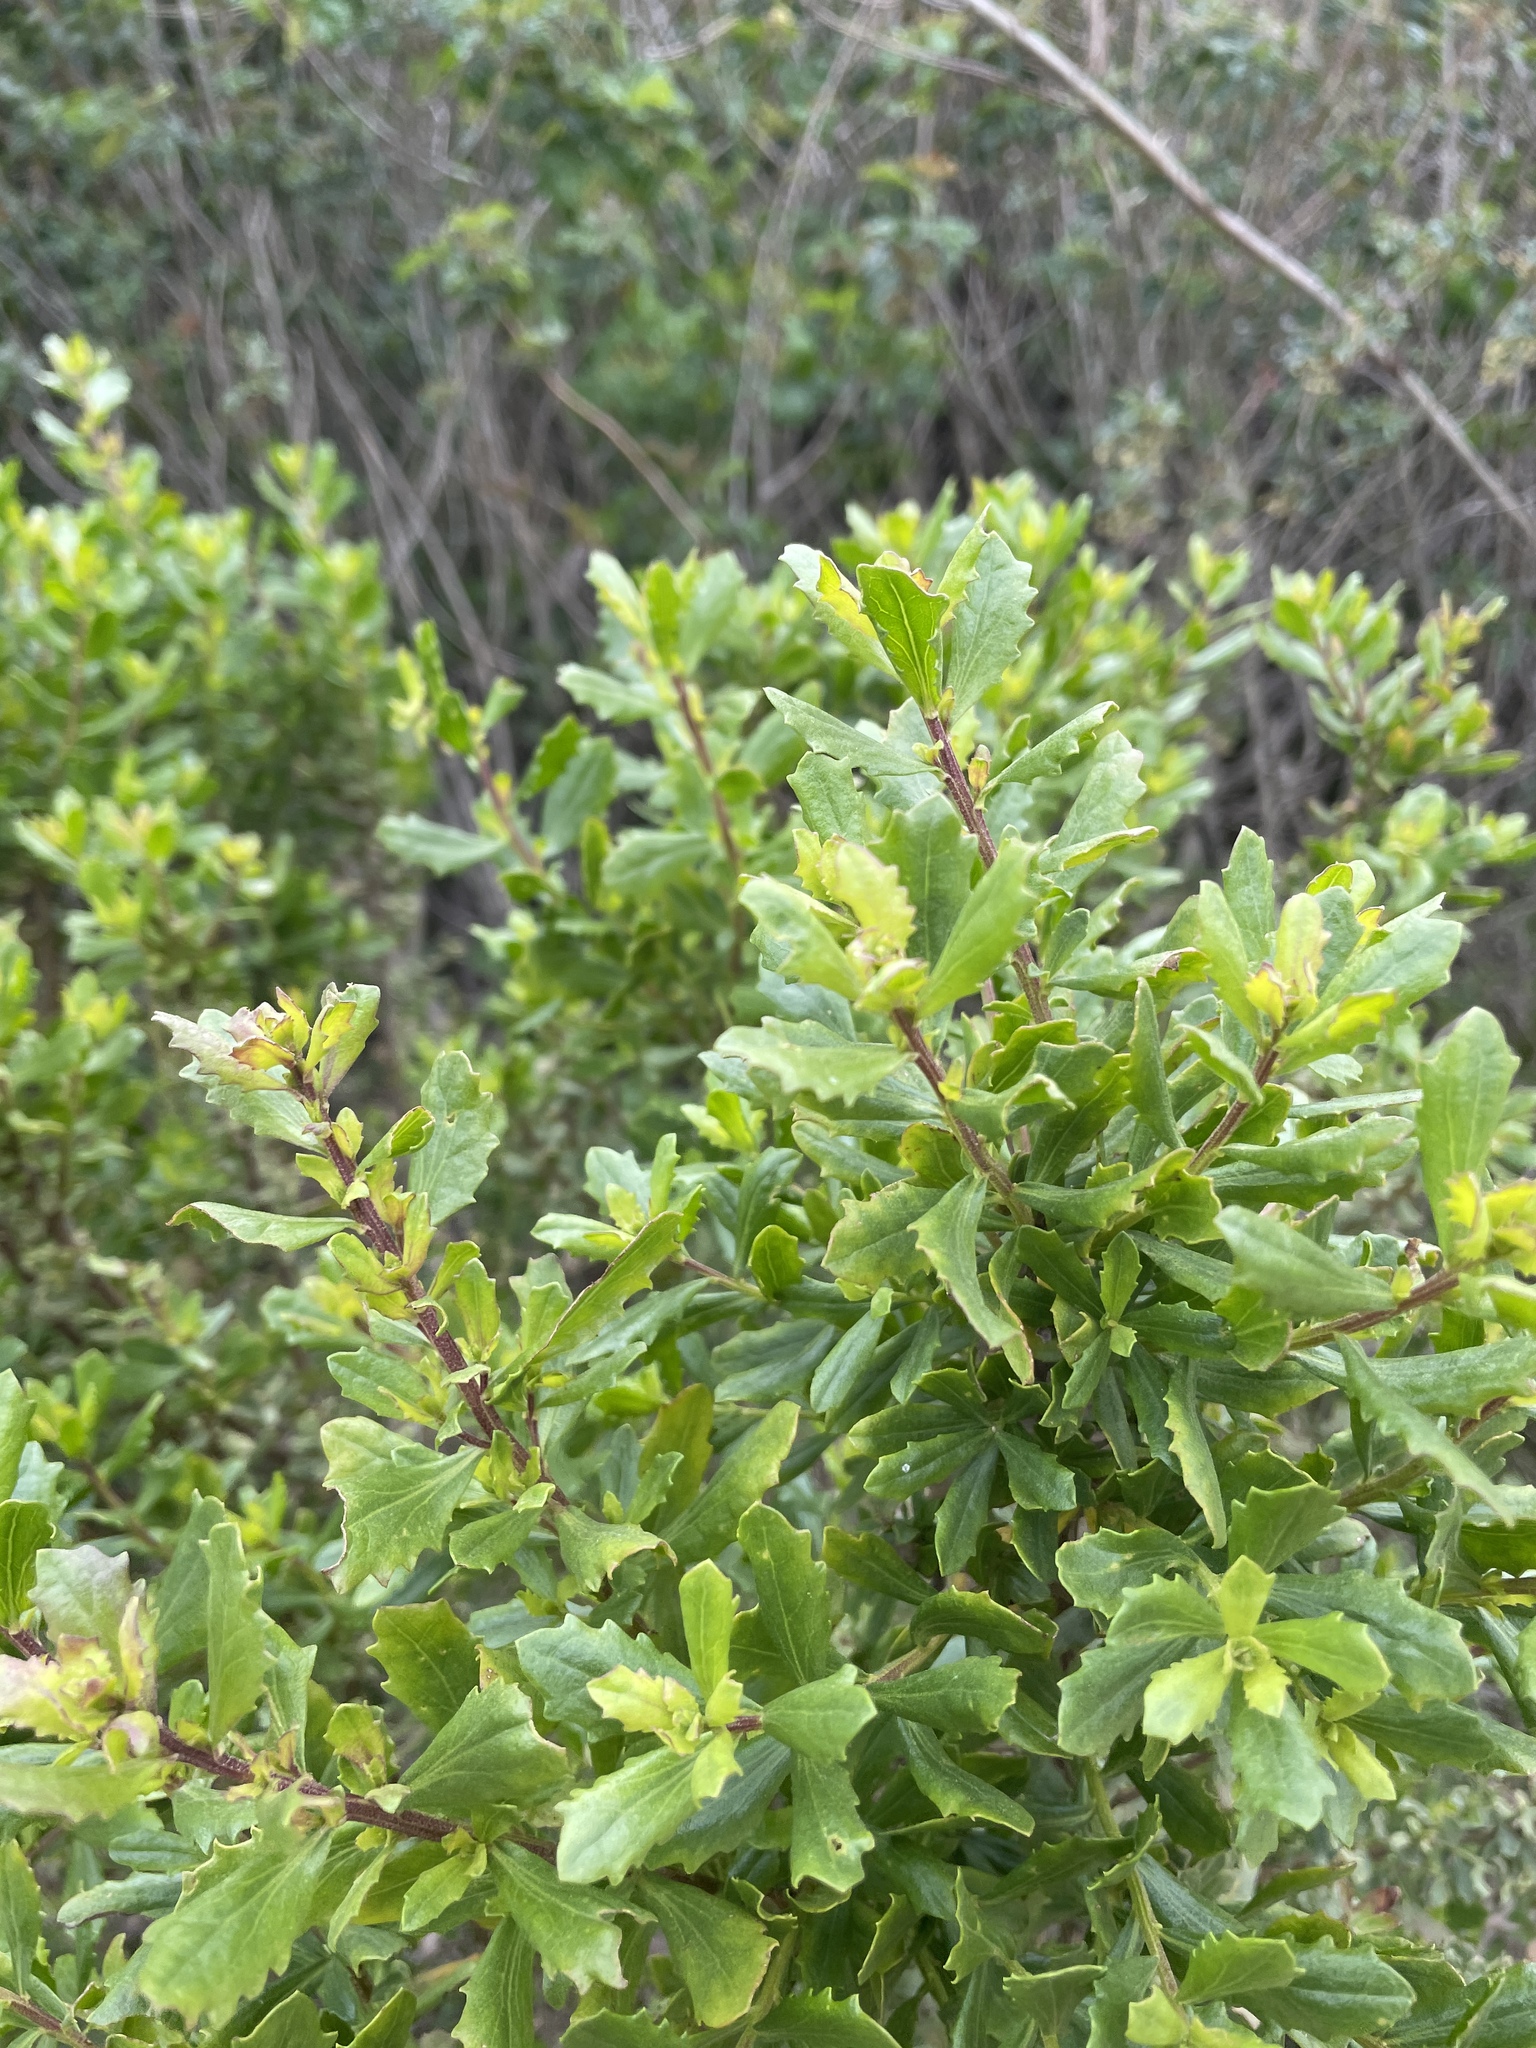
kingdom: Plantae
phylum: Tracheophyta
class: Magnoliopsida
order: Asterales
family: Asteraceae
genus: Baccharis
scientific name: Baccharis pilularis
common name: Coyotebrush
